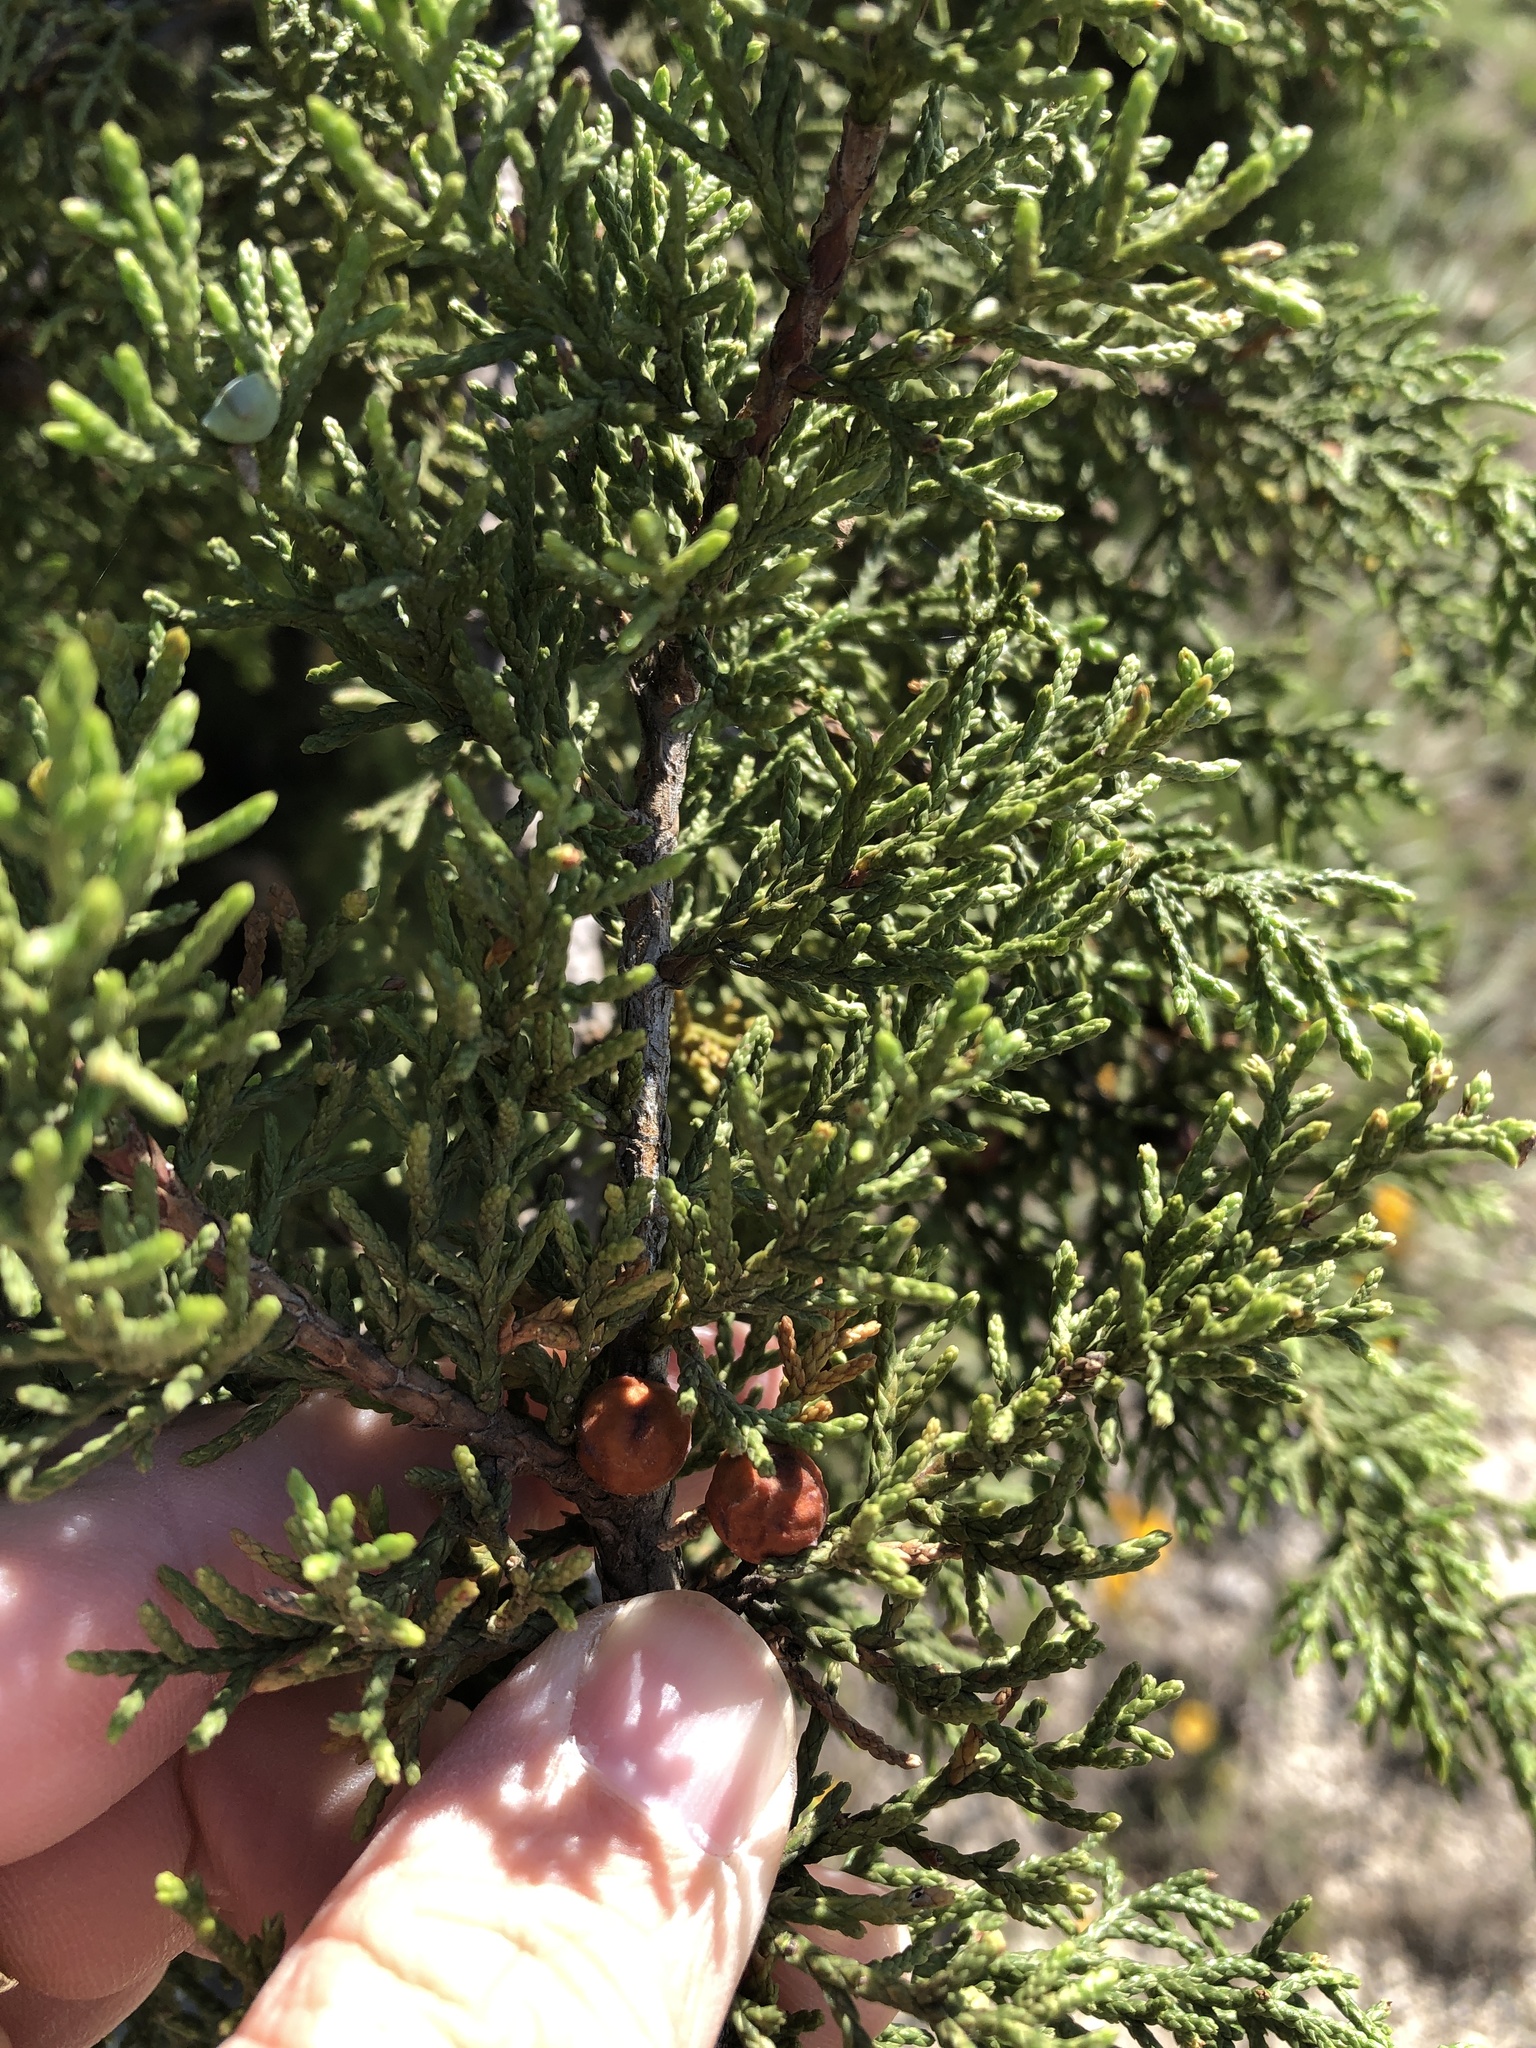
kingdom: Plantae
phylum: Tracheophyta
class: Pinopsida
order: Pinales
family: Cupressaceae
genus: Juniperus
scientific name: Juniperus pinchotii
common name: Pinchot juniper
